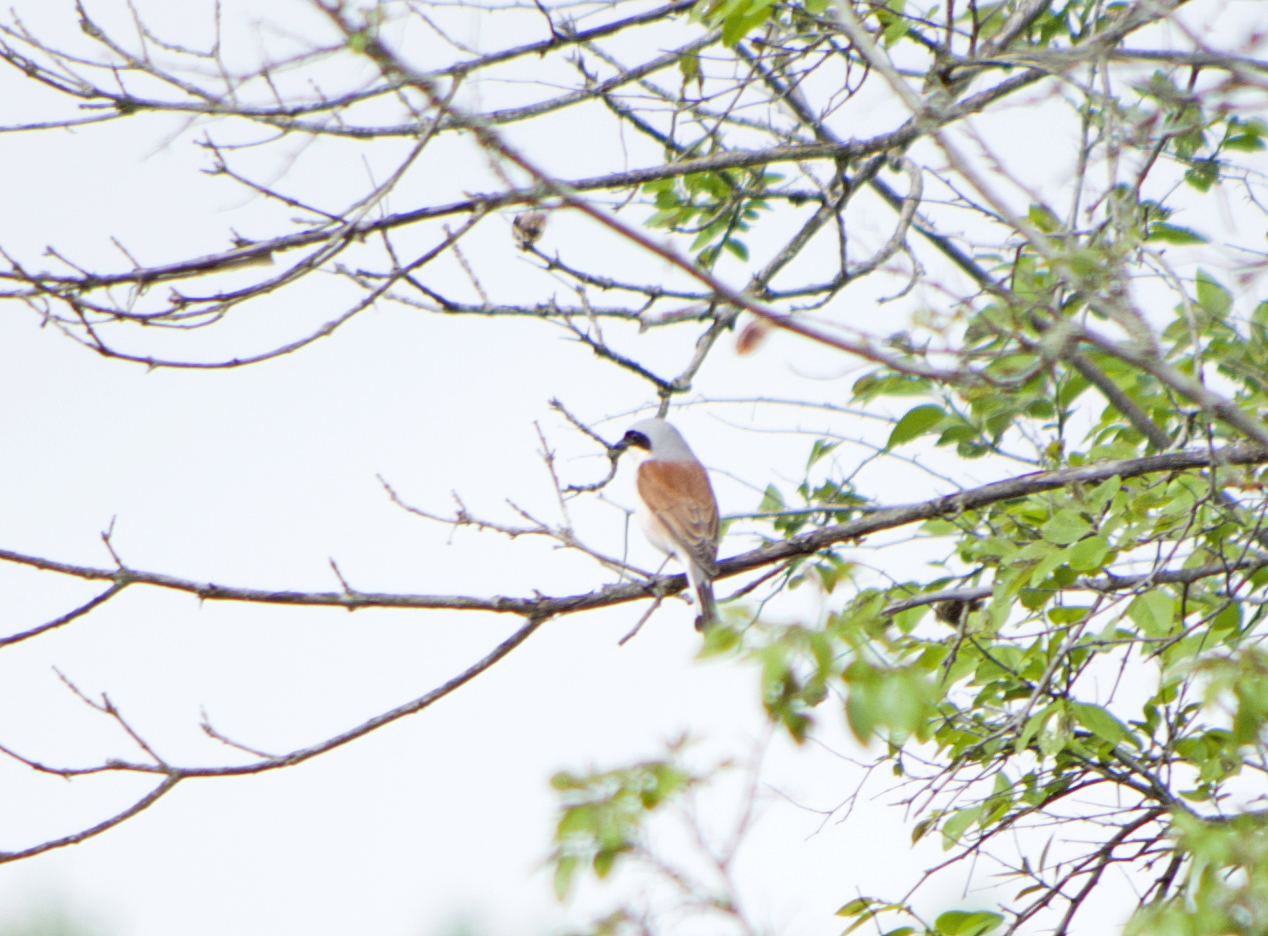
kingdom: Animalia
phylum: Chordata
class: Aves
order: Passeriformes
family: Laniidae
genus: Lanius
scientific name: Lanius collurio
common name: Red-backed shrike
